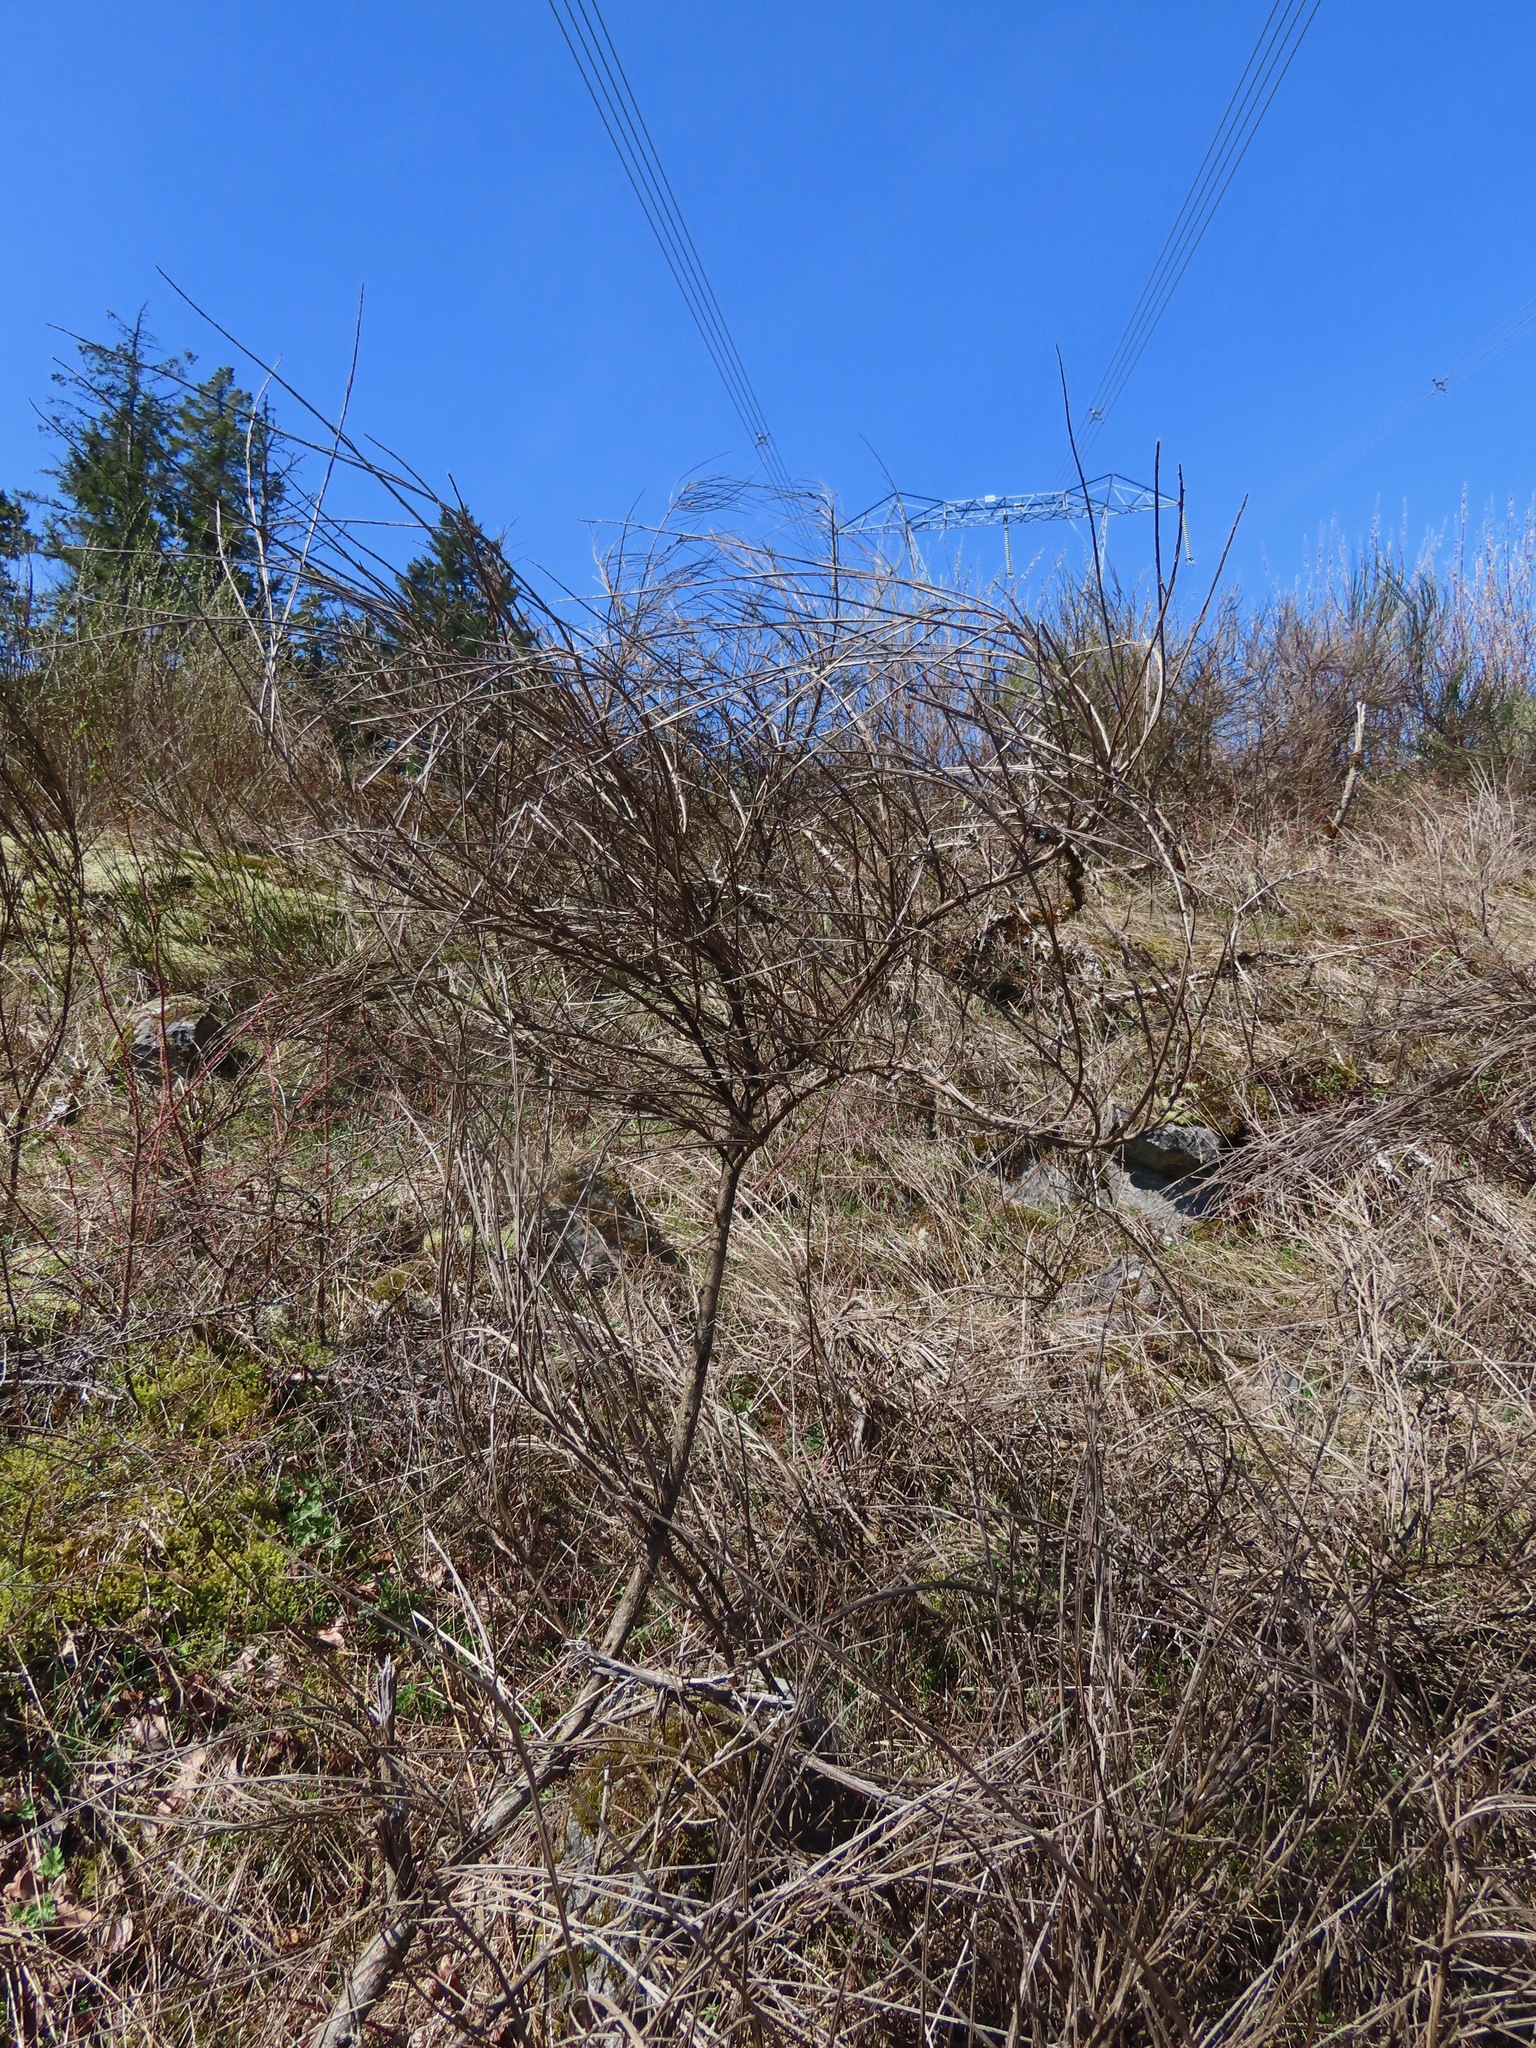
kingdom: Plantae
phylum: Tracheophyta
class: Magnoliopsida
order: Fabales
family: Fabaceae
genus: Cytisus
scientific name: Cytisus scoparius
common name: Scotch broom
